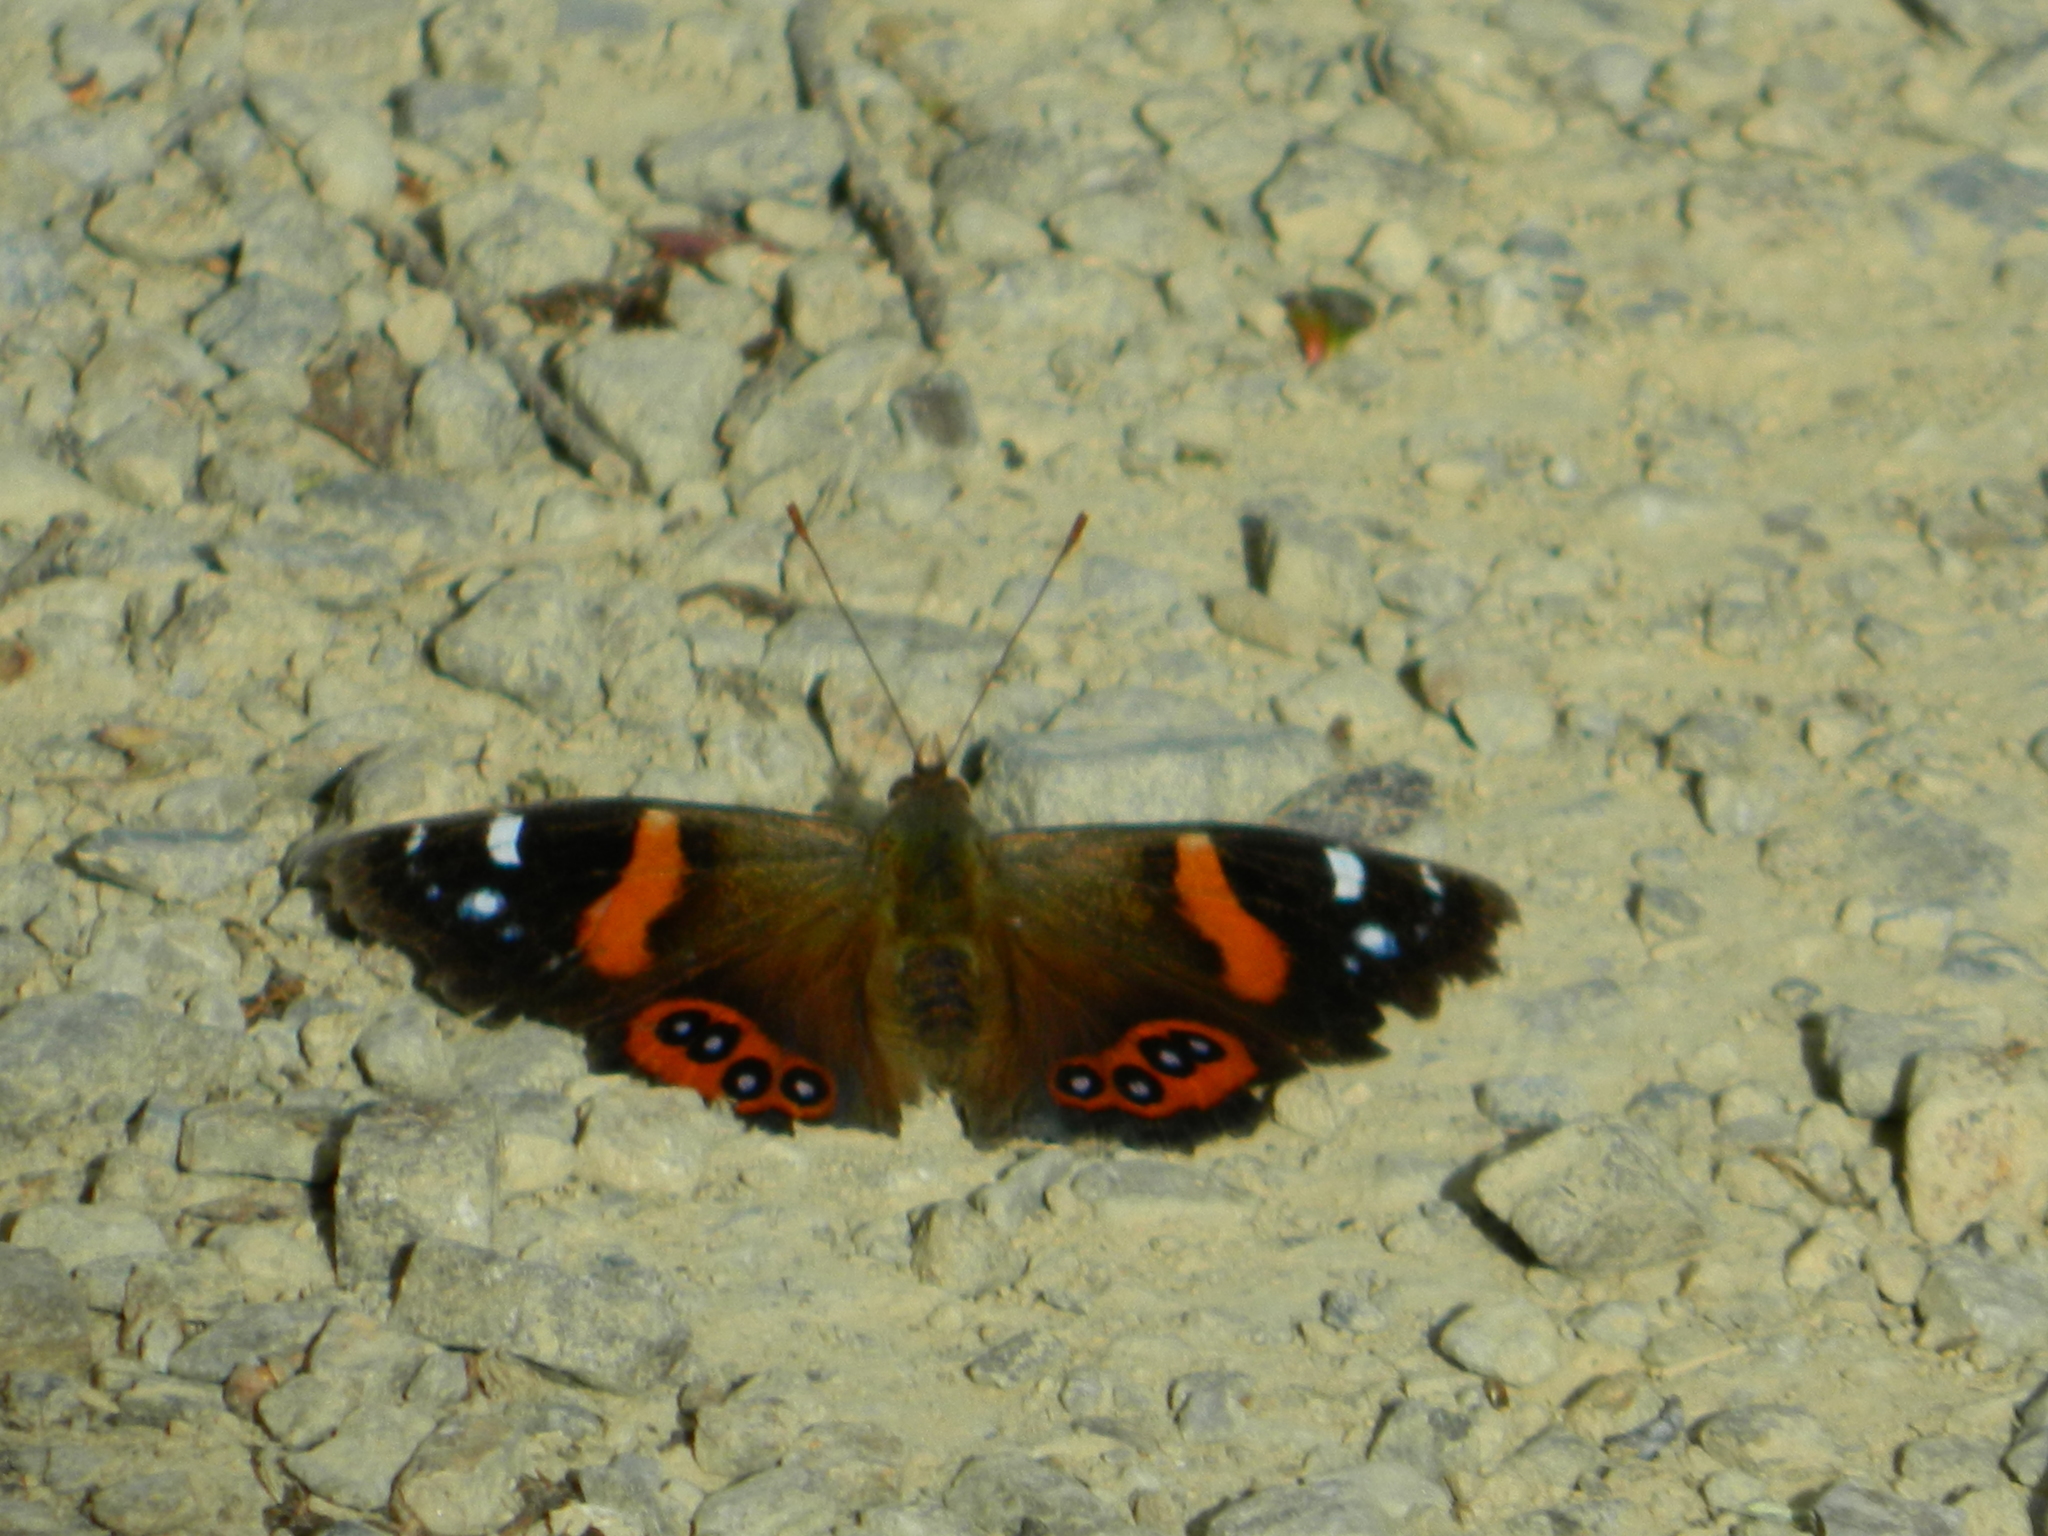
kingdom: Animalia
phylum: Arthropoda
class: Insecta
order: Lepidoptera
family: Nymphalidae
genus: Vanessa
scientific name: Vanessa gonerilla
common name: New zealand red admiral
